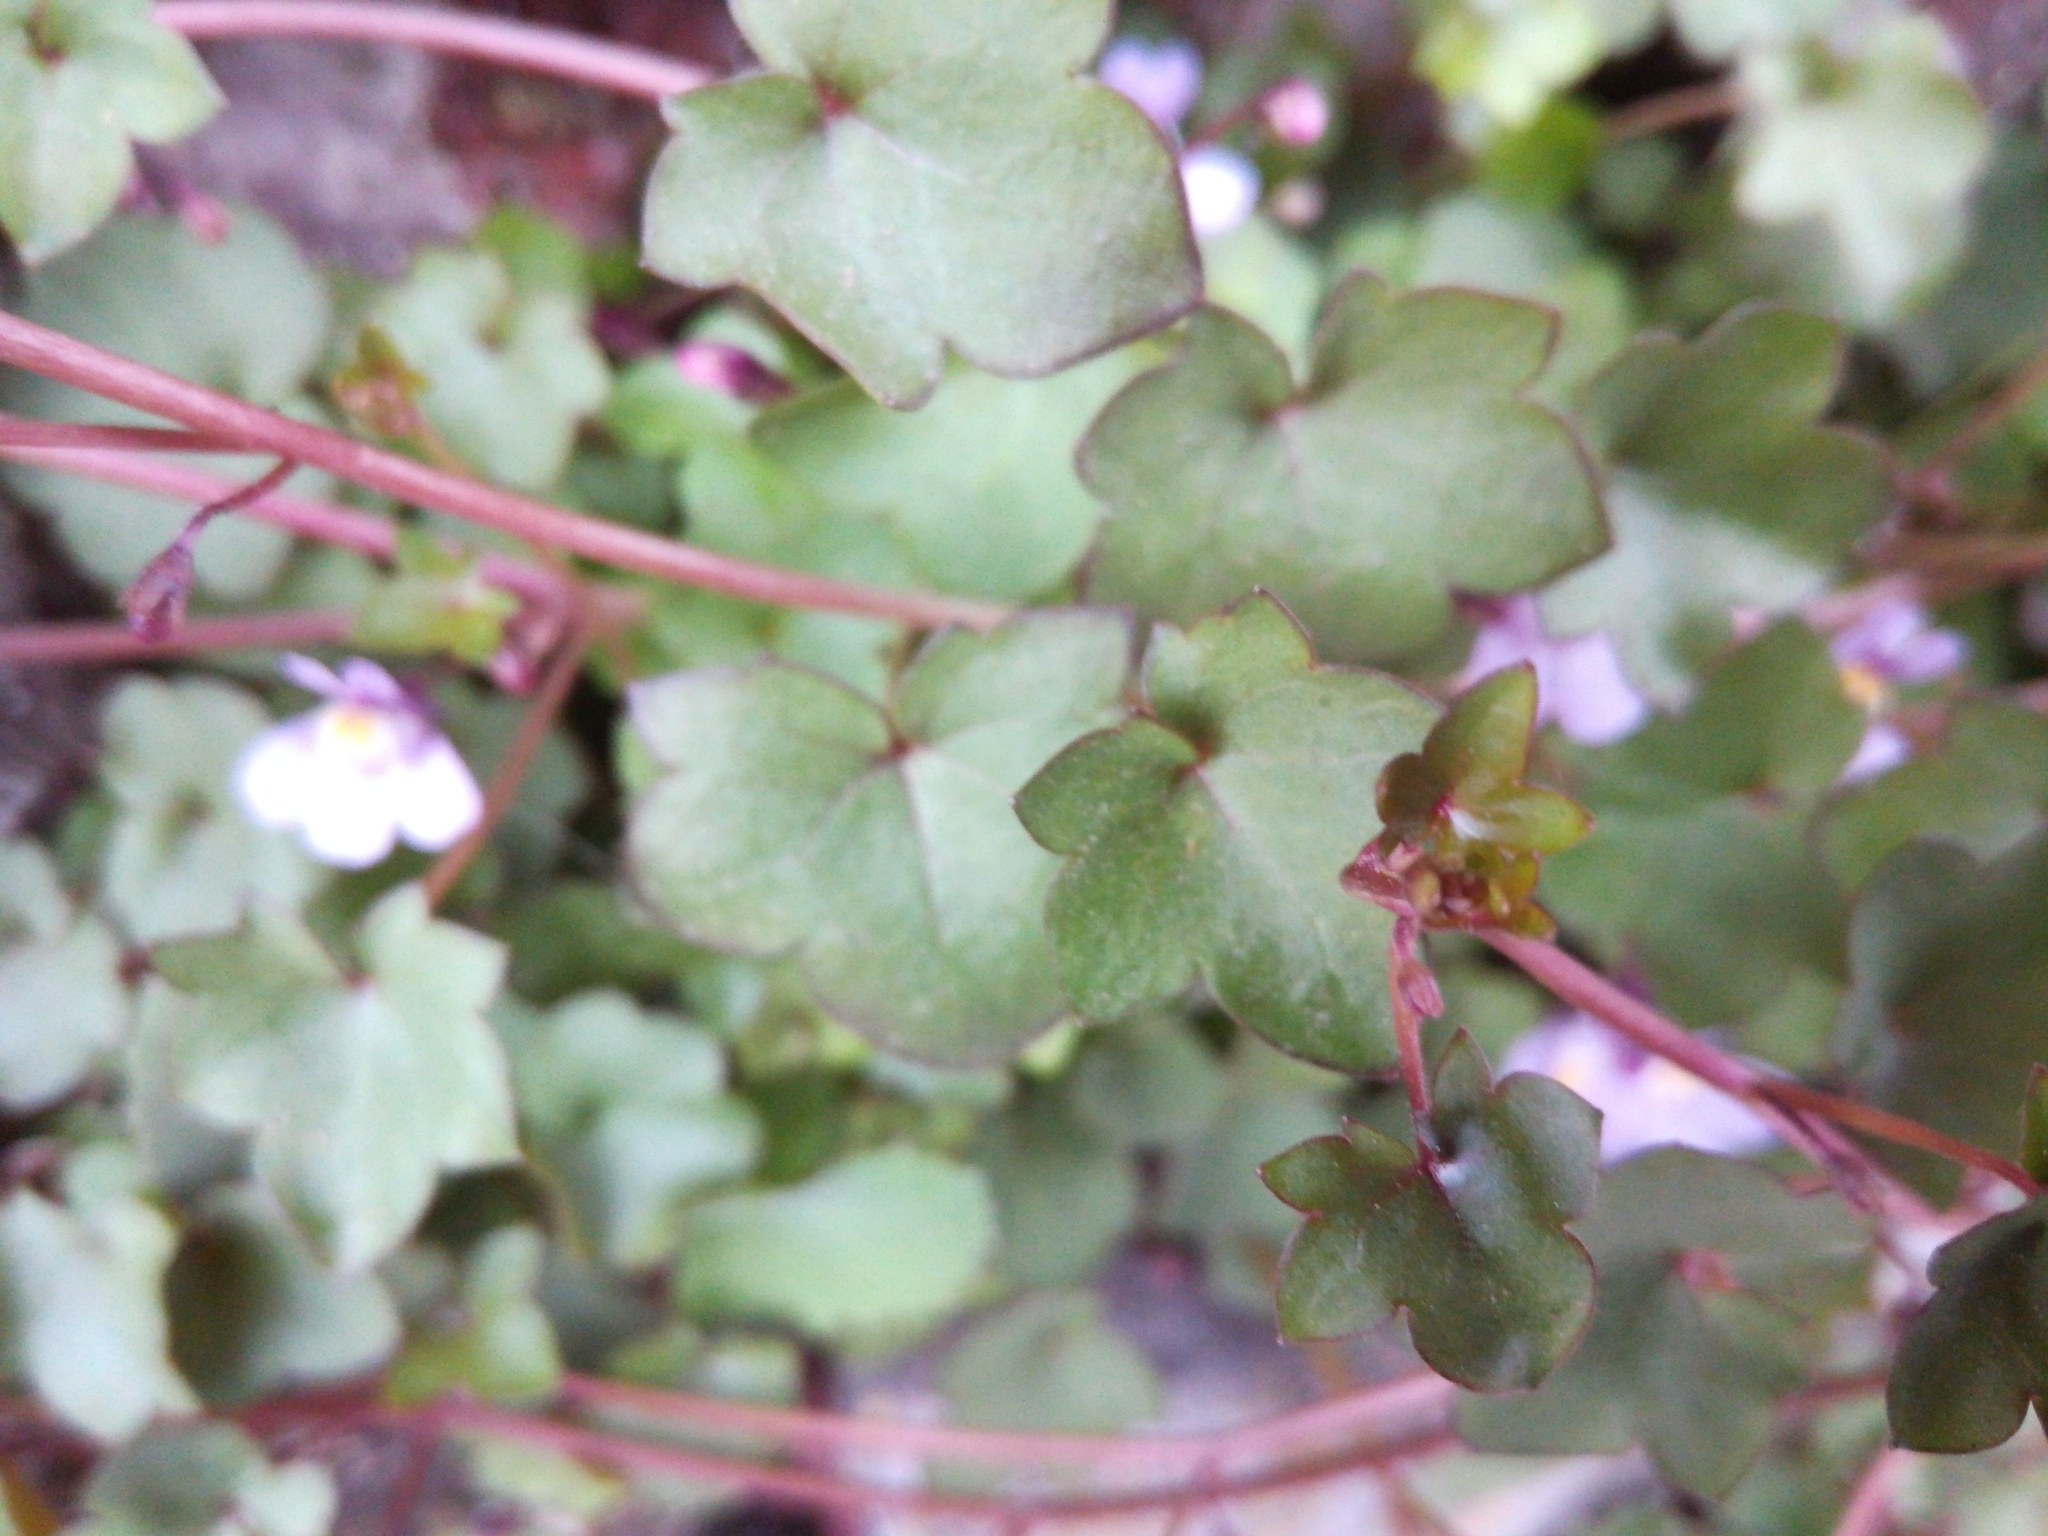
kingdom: Plantae
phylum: Tracheophyta
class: Magnoliopsida
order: Lamiales
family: Plantaginaceae
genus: Cymbalaria
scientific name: Cymbalaria muralis
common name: Ivy-leaved toadflax
